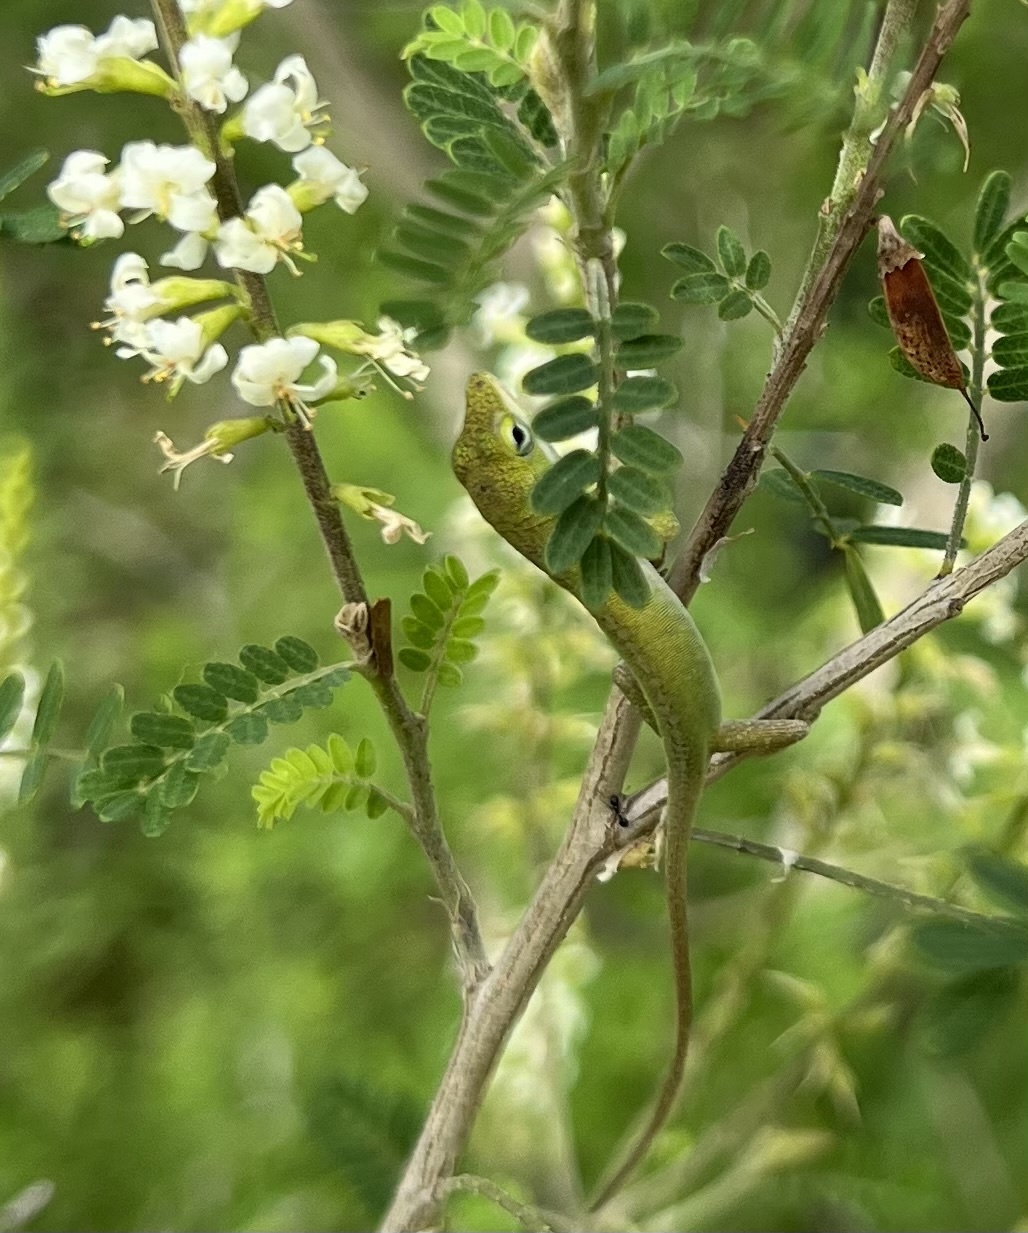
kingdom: Animalia
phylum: Chordata
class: Squamata
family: Dactyloidae
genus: Anolis
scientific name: Anolis carolinensis
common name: Green anole
